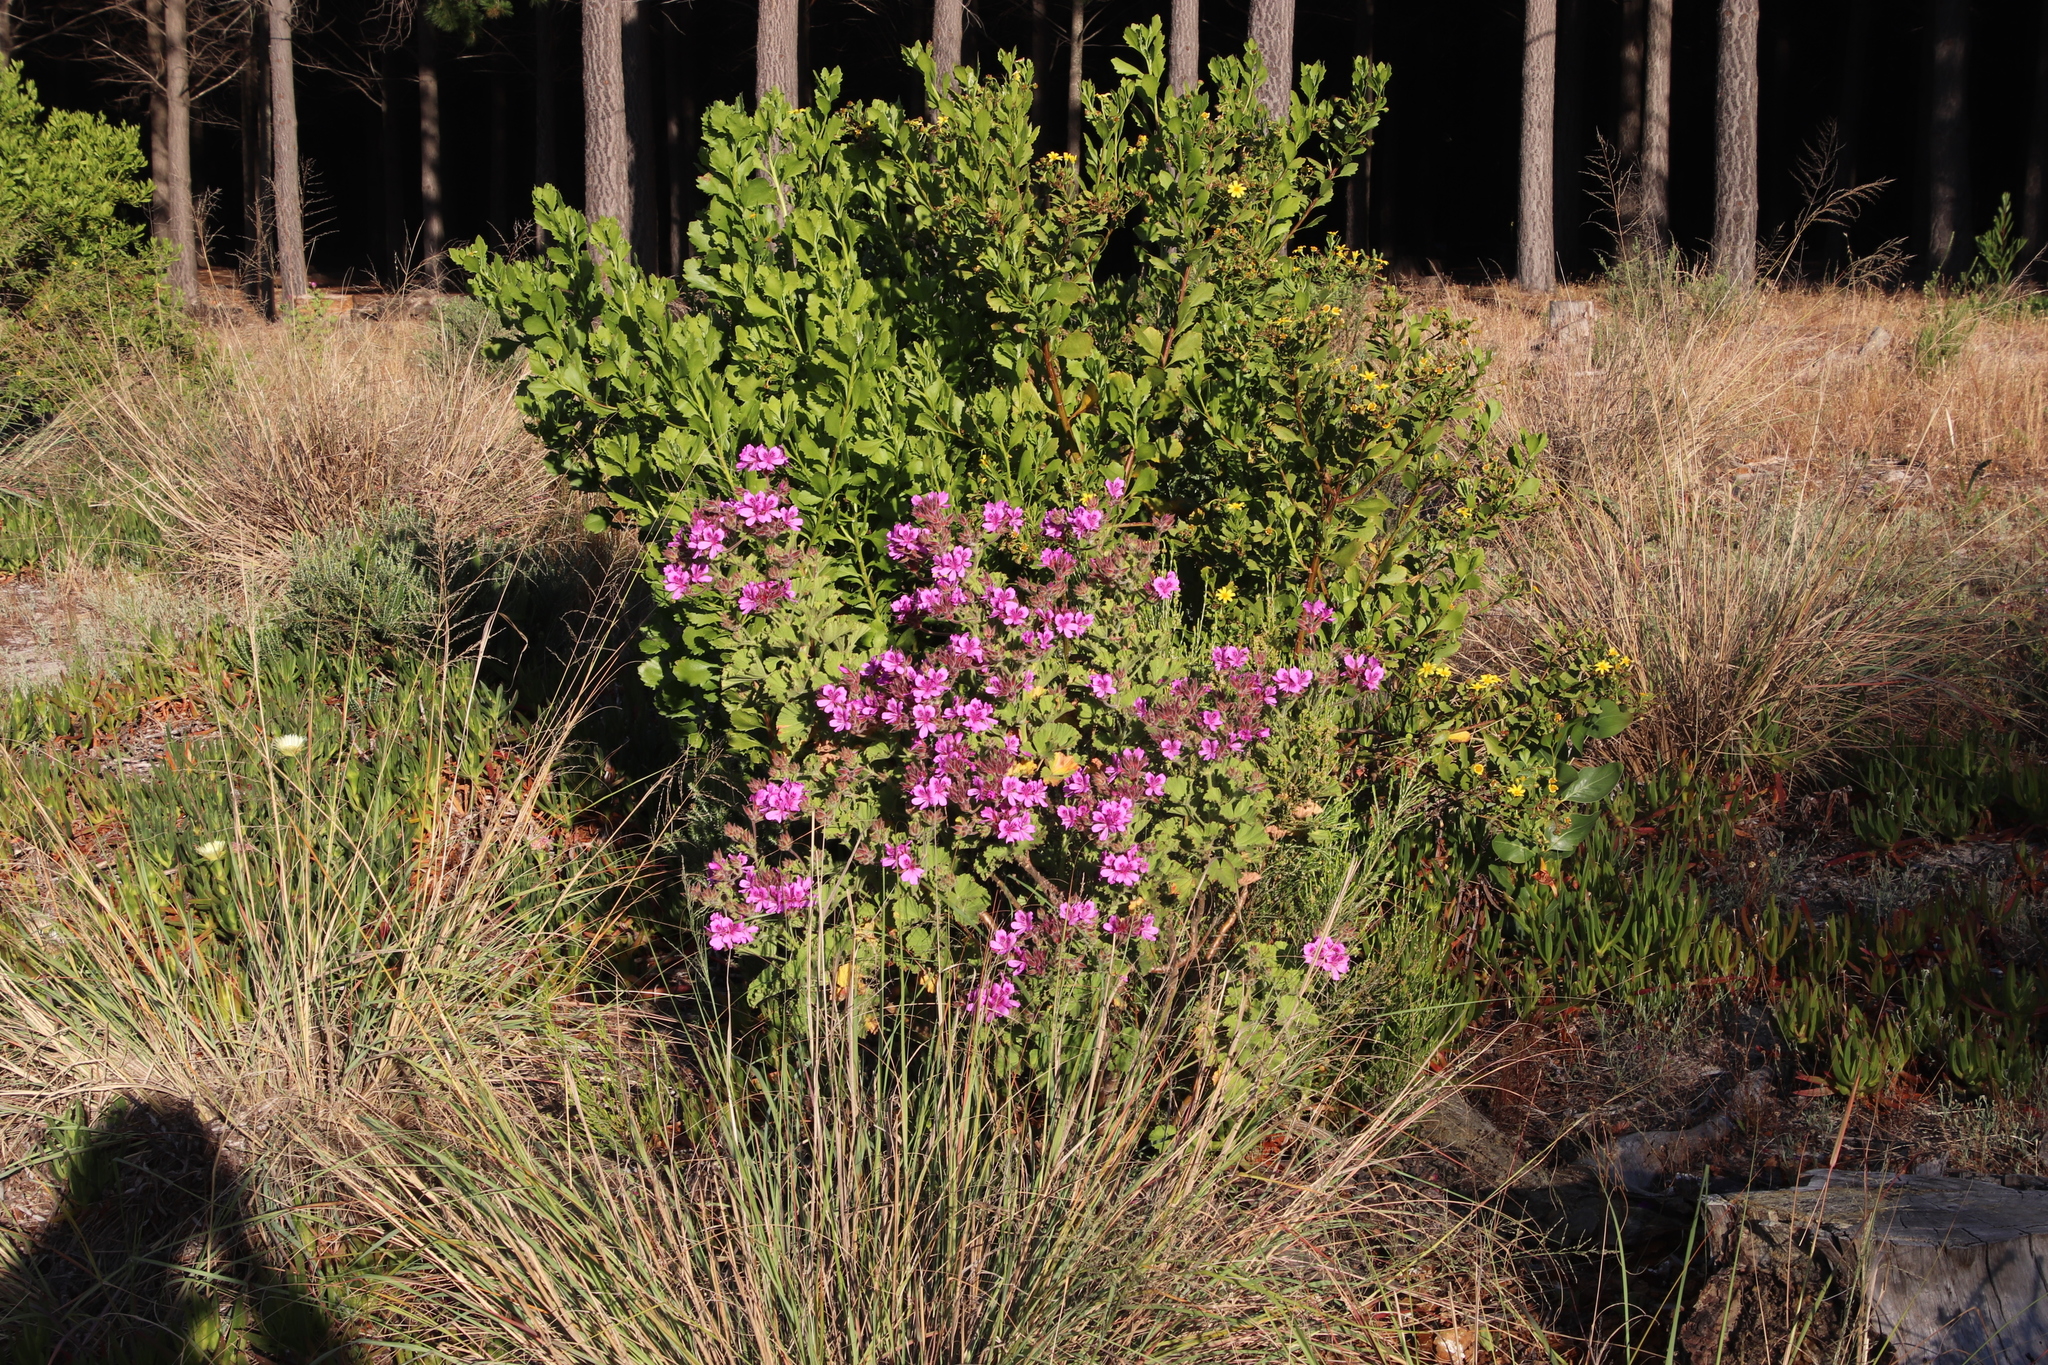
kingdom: Plantae
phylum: Tracheophyta
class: Magnoliopsida
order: Geraniales
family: Geraniaceae
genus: Pelargonium
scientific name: Pelargonium cucullatum
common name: Tree pelargonium
